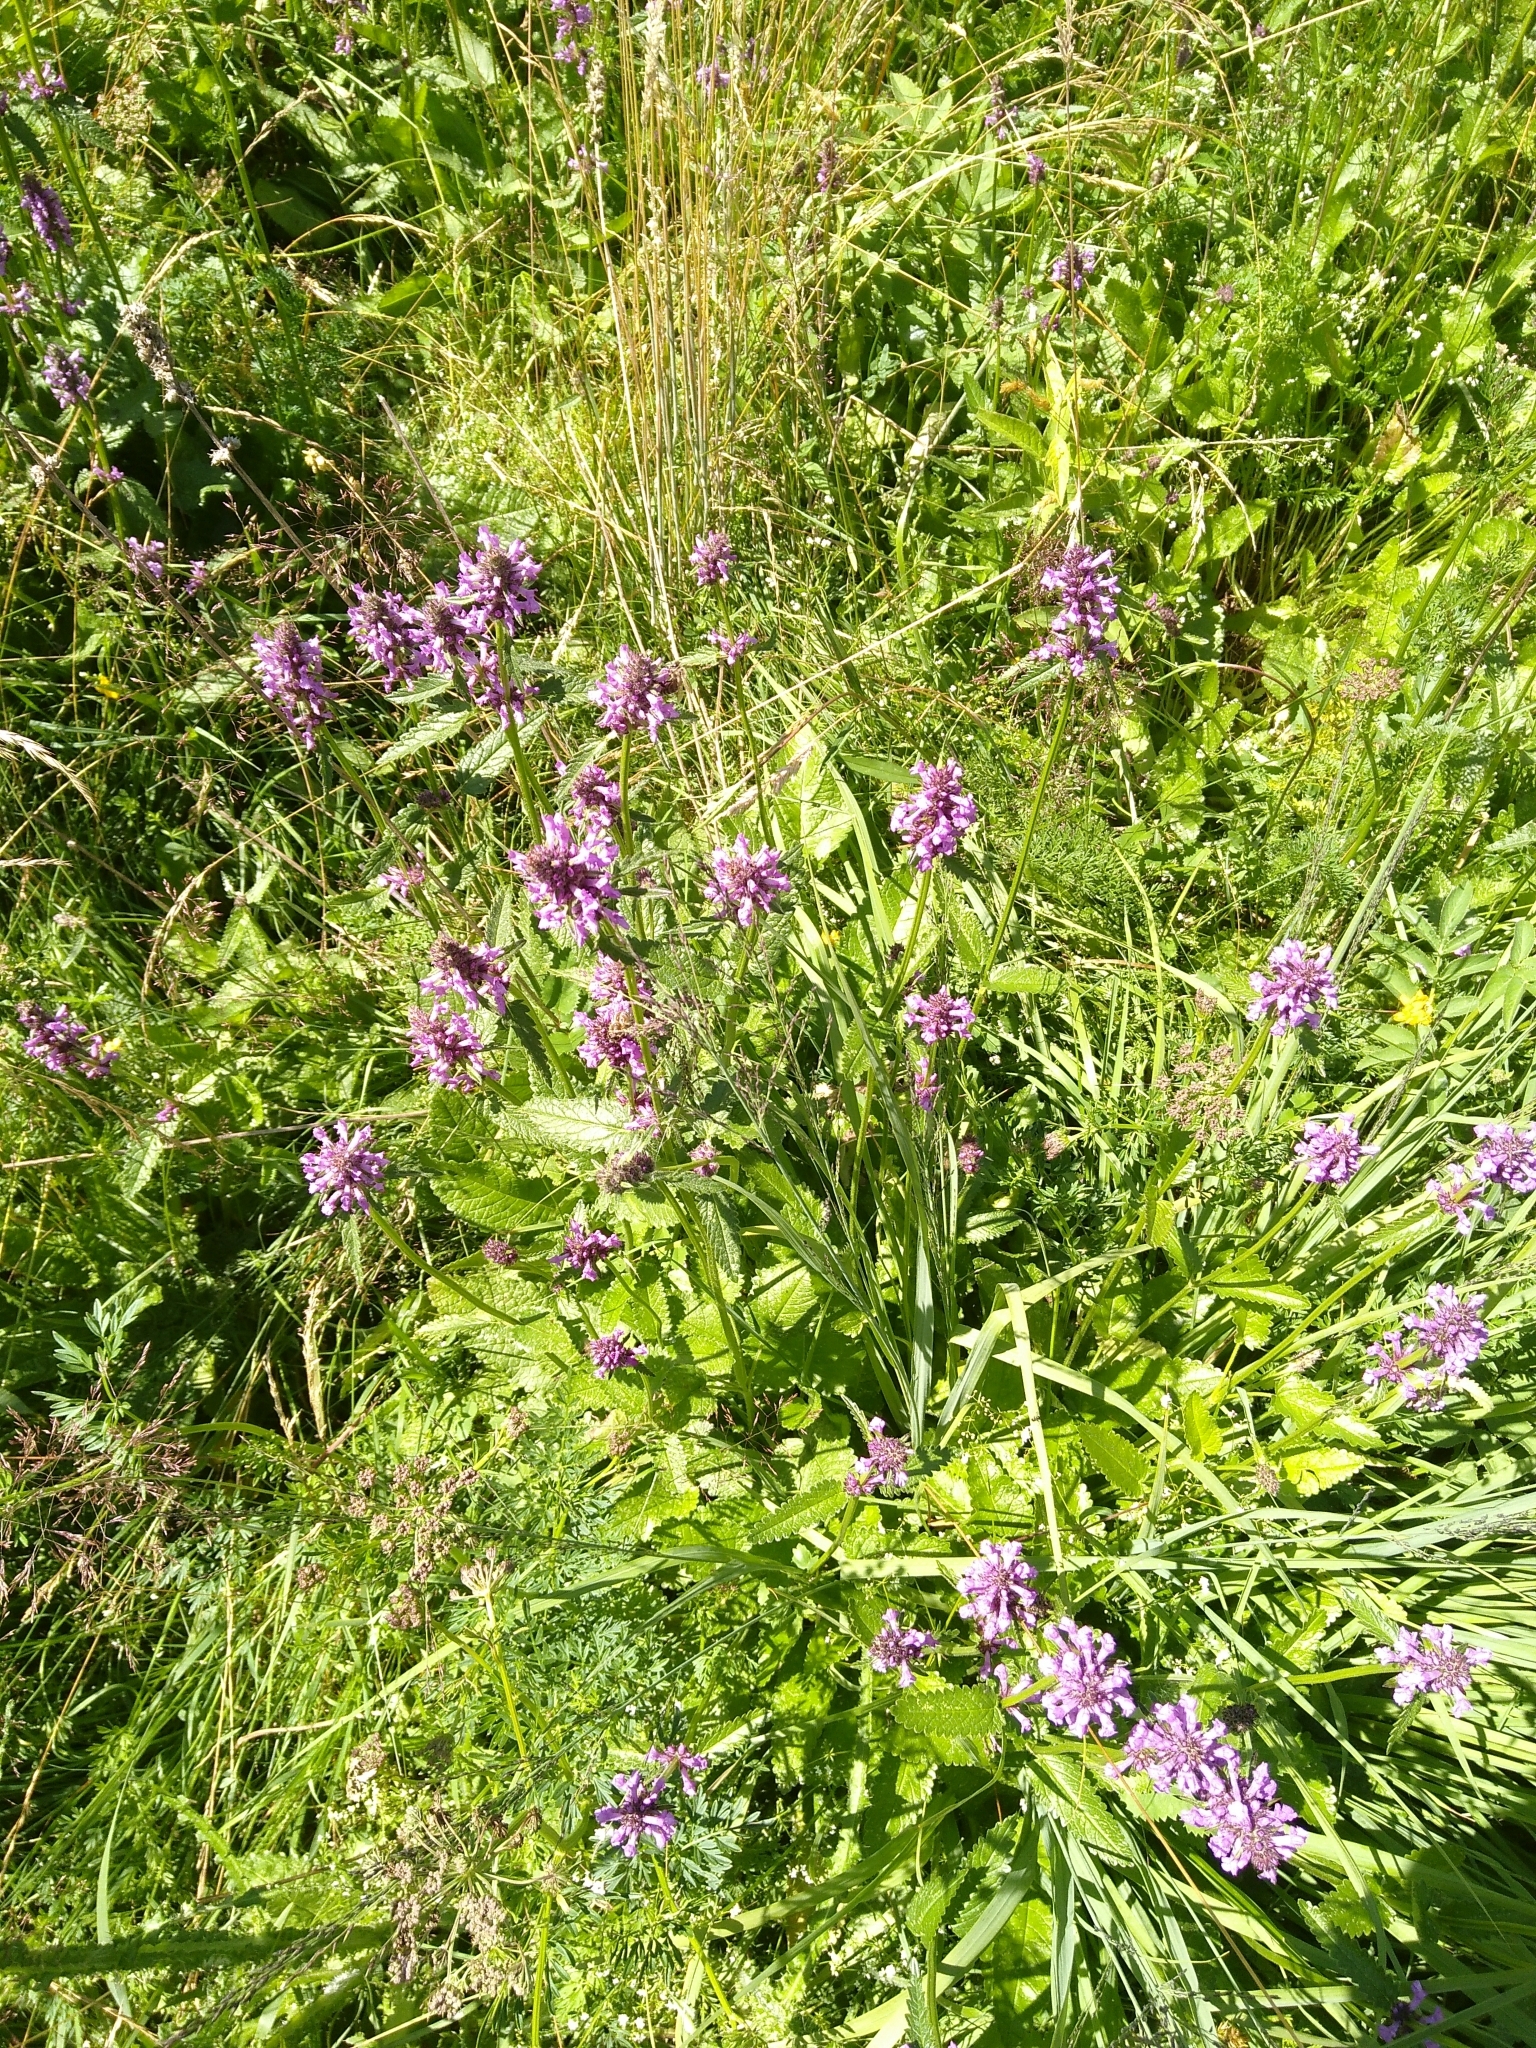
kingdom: Plantae
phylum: Tracheophyta
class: Magnoliopsida
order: Lamiales
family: Lamiaceae
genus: Betonica
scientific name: Betonica officinalis
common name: Bishop's-wort
